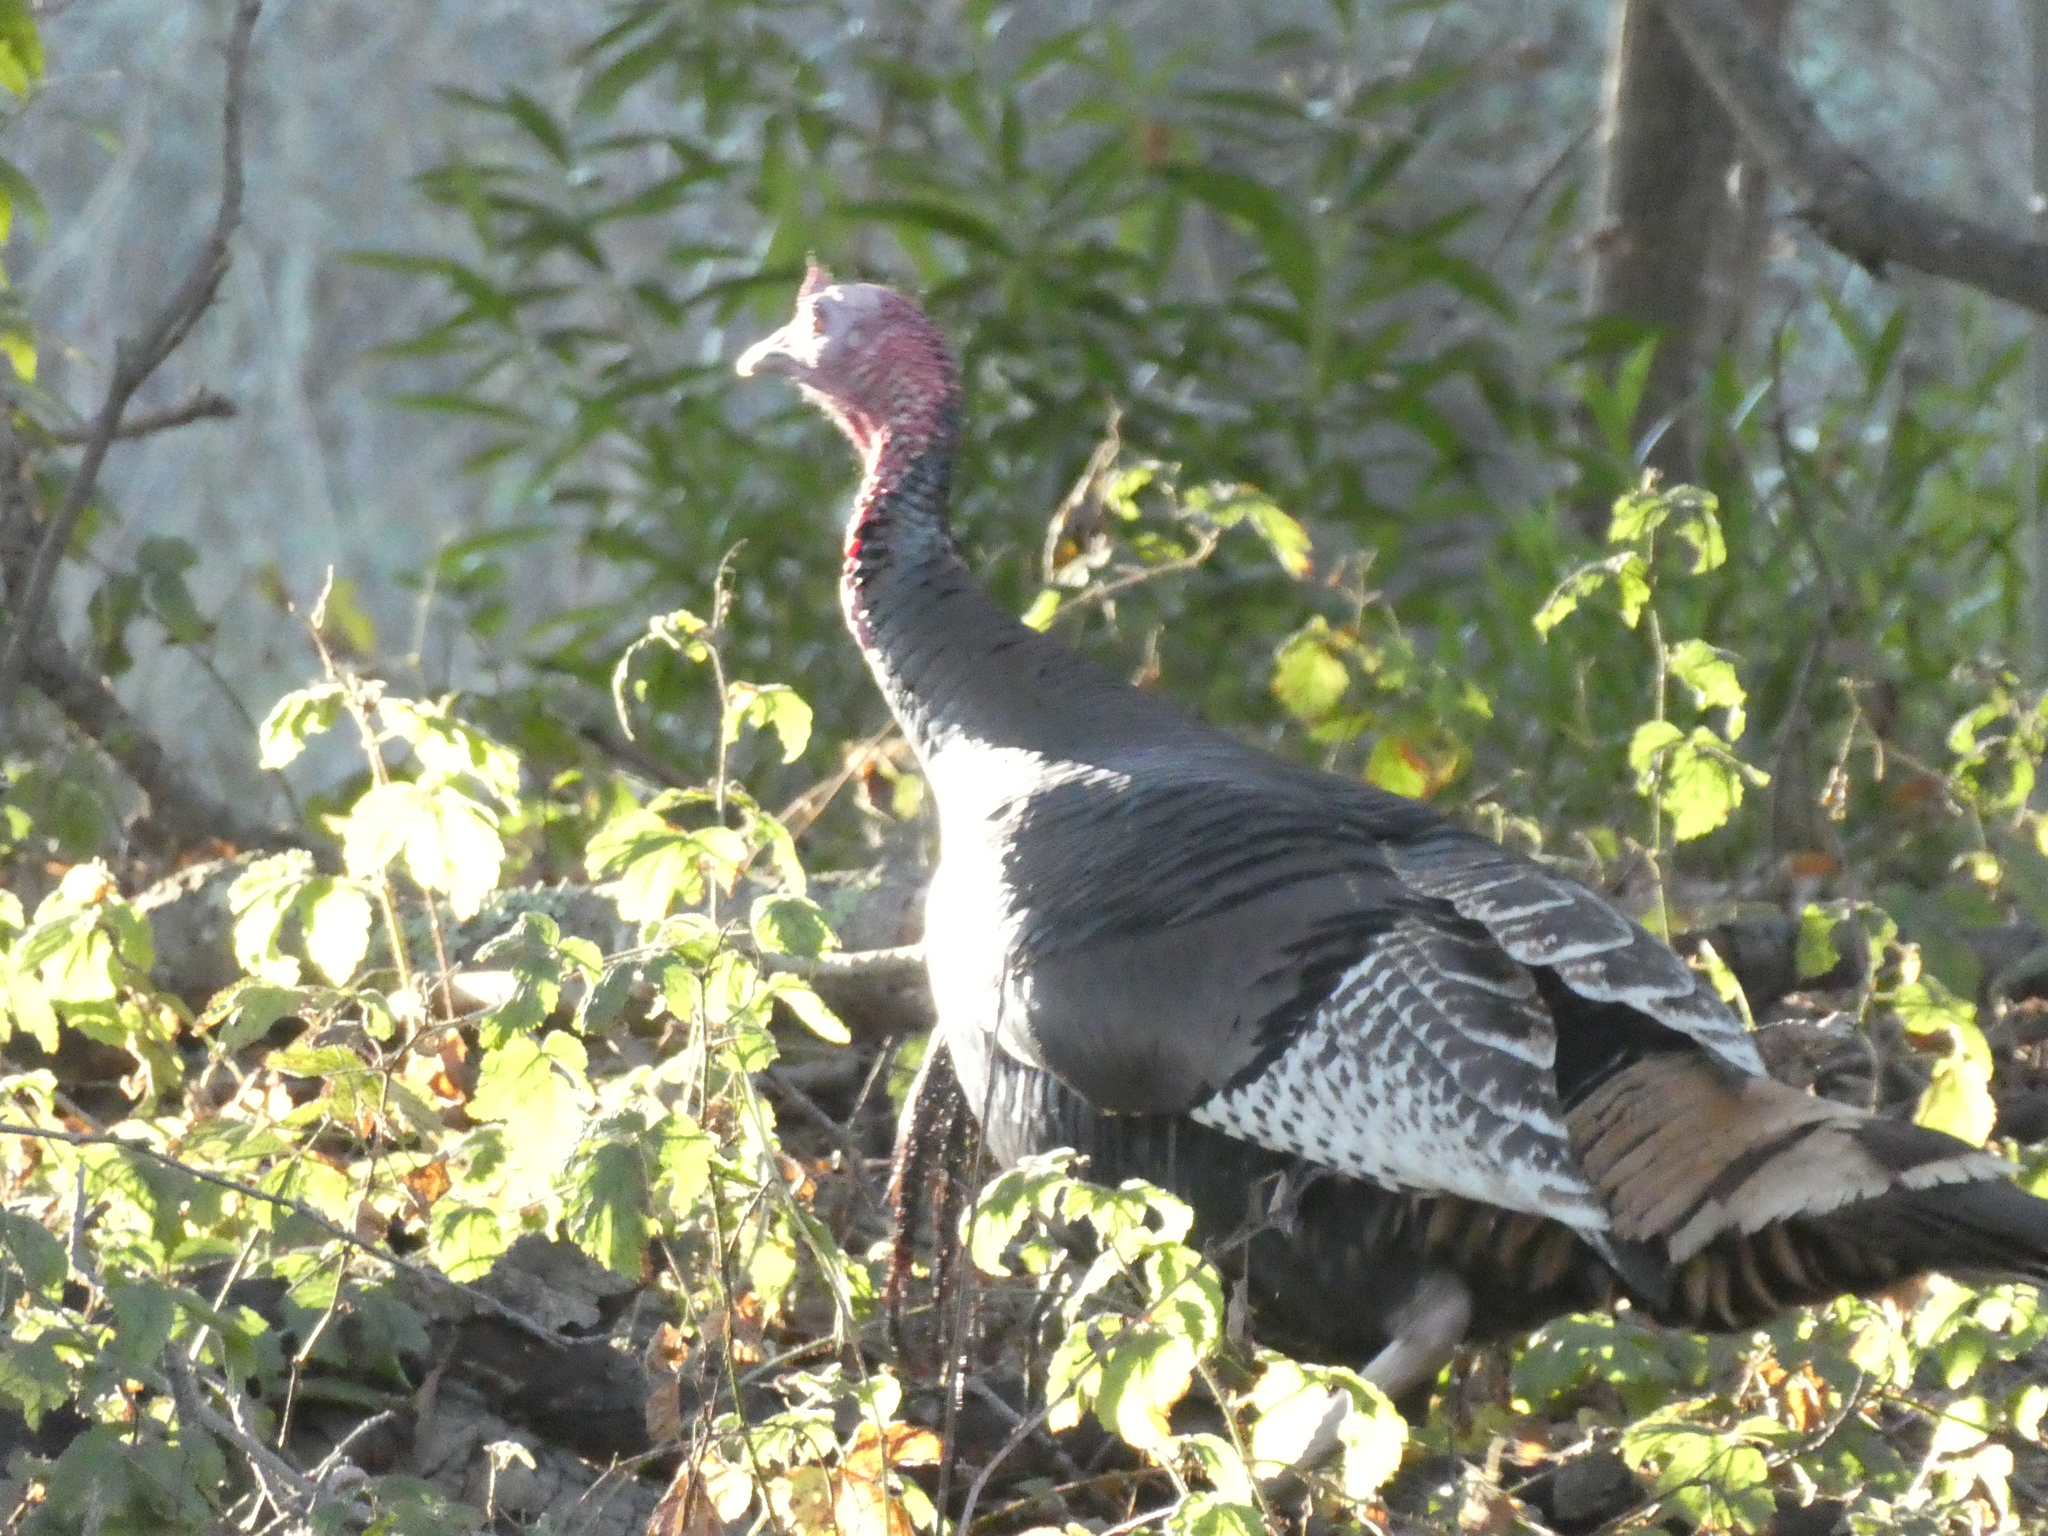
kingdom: Animalia
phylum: Chordata
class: Aves
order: Galliformes
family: Phasianidae
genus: Meleagris
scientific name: Meleagris gallopavo
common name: Wild turkey
